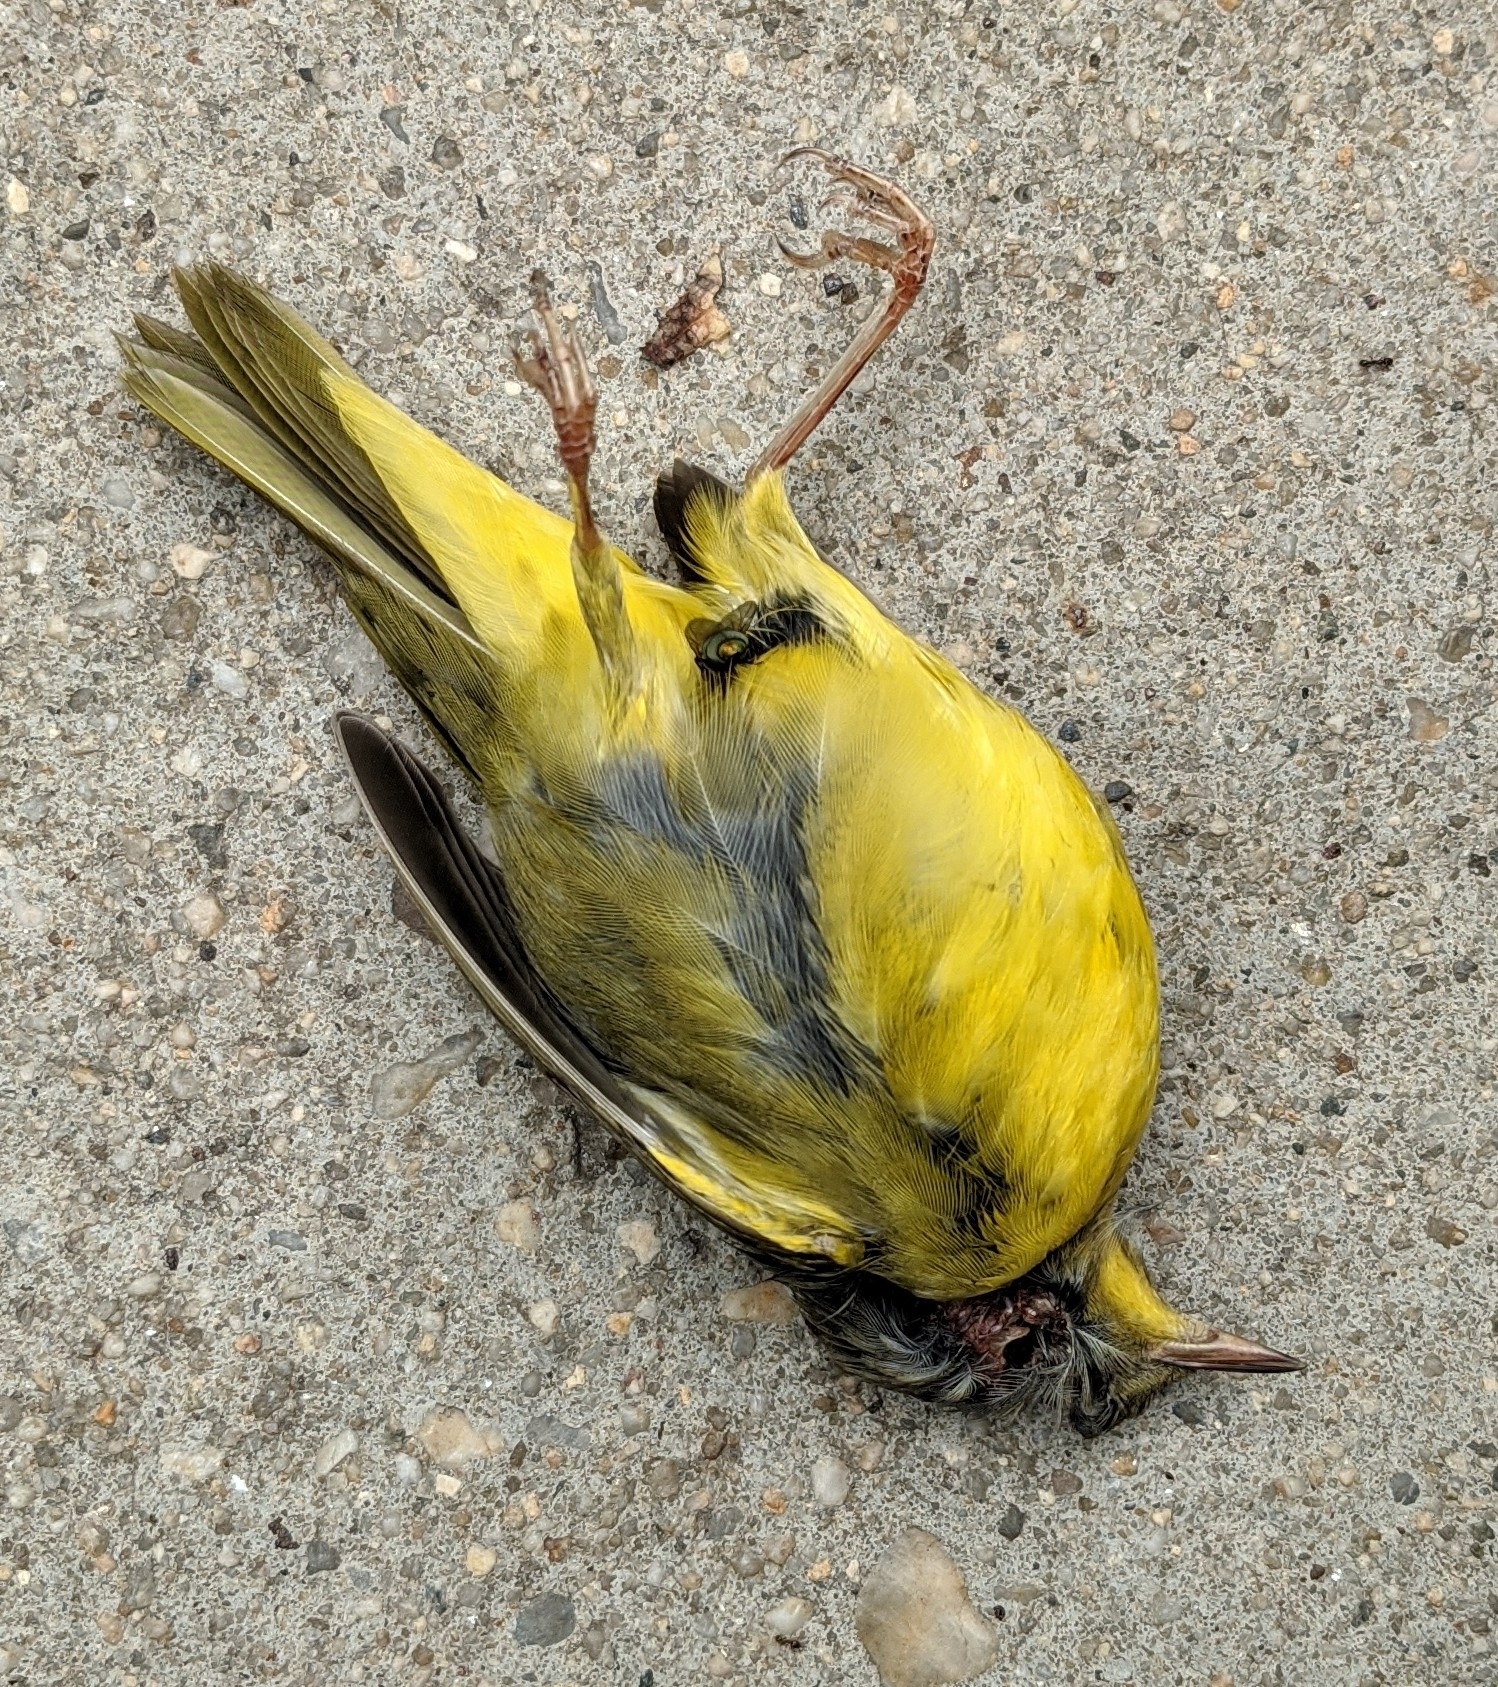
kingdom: Animalia
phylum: Chordata
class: Aves
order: Passeriformes
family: Parulidae
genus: Geothlypis
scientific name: Geothlypis trichas
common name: Common yellowthroat
